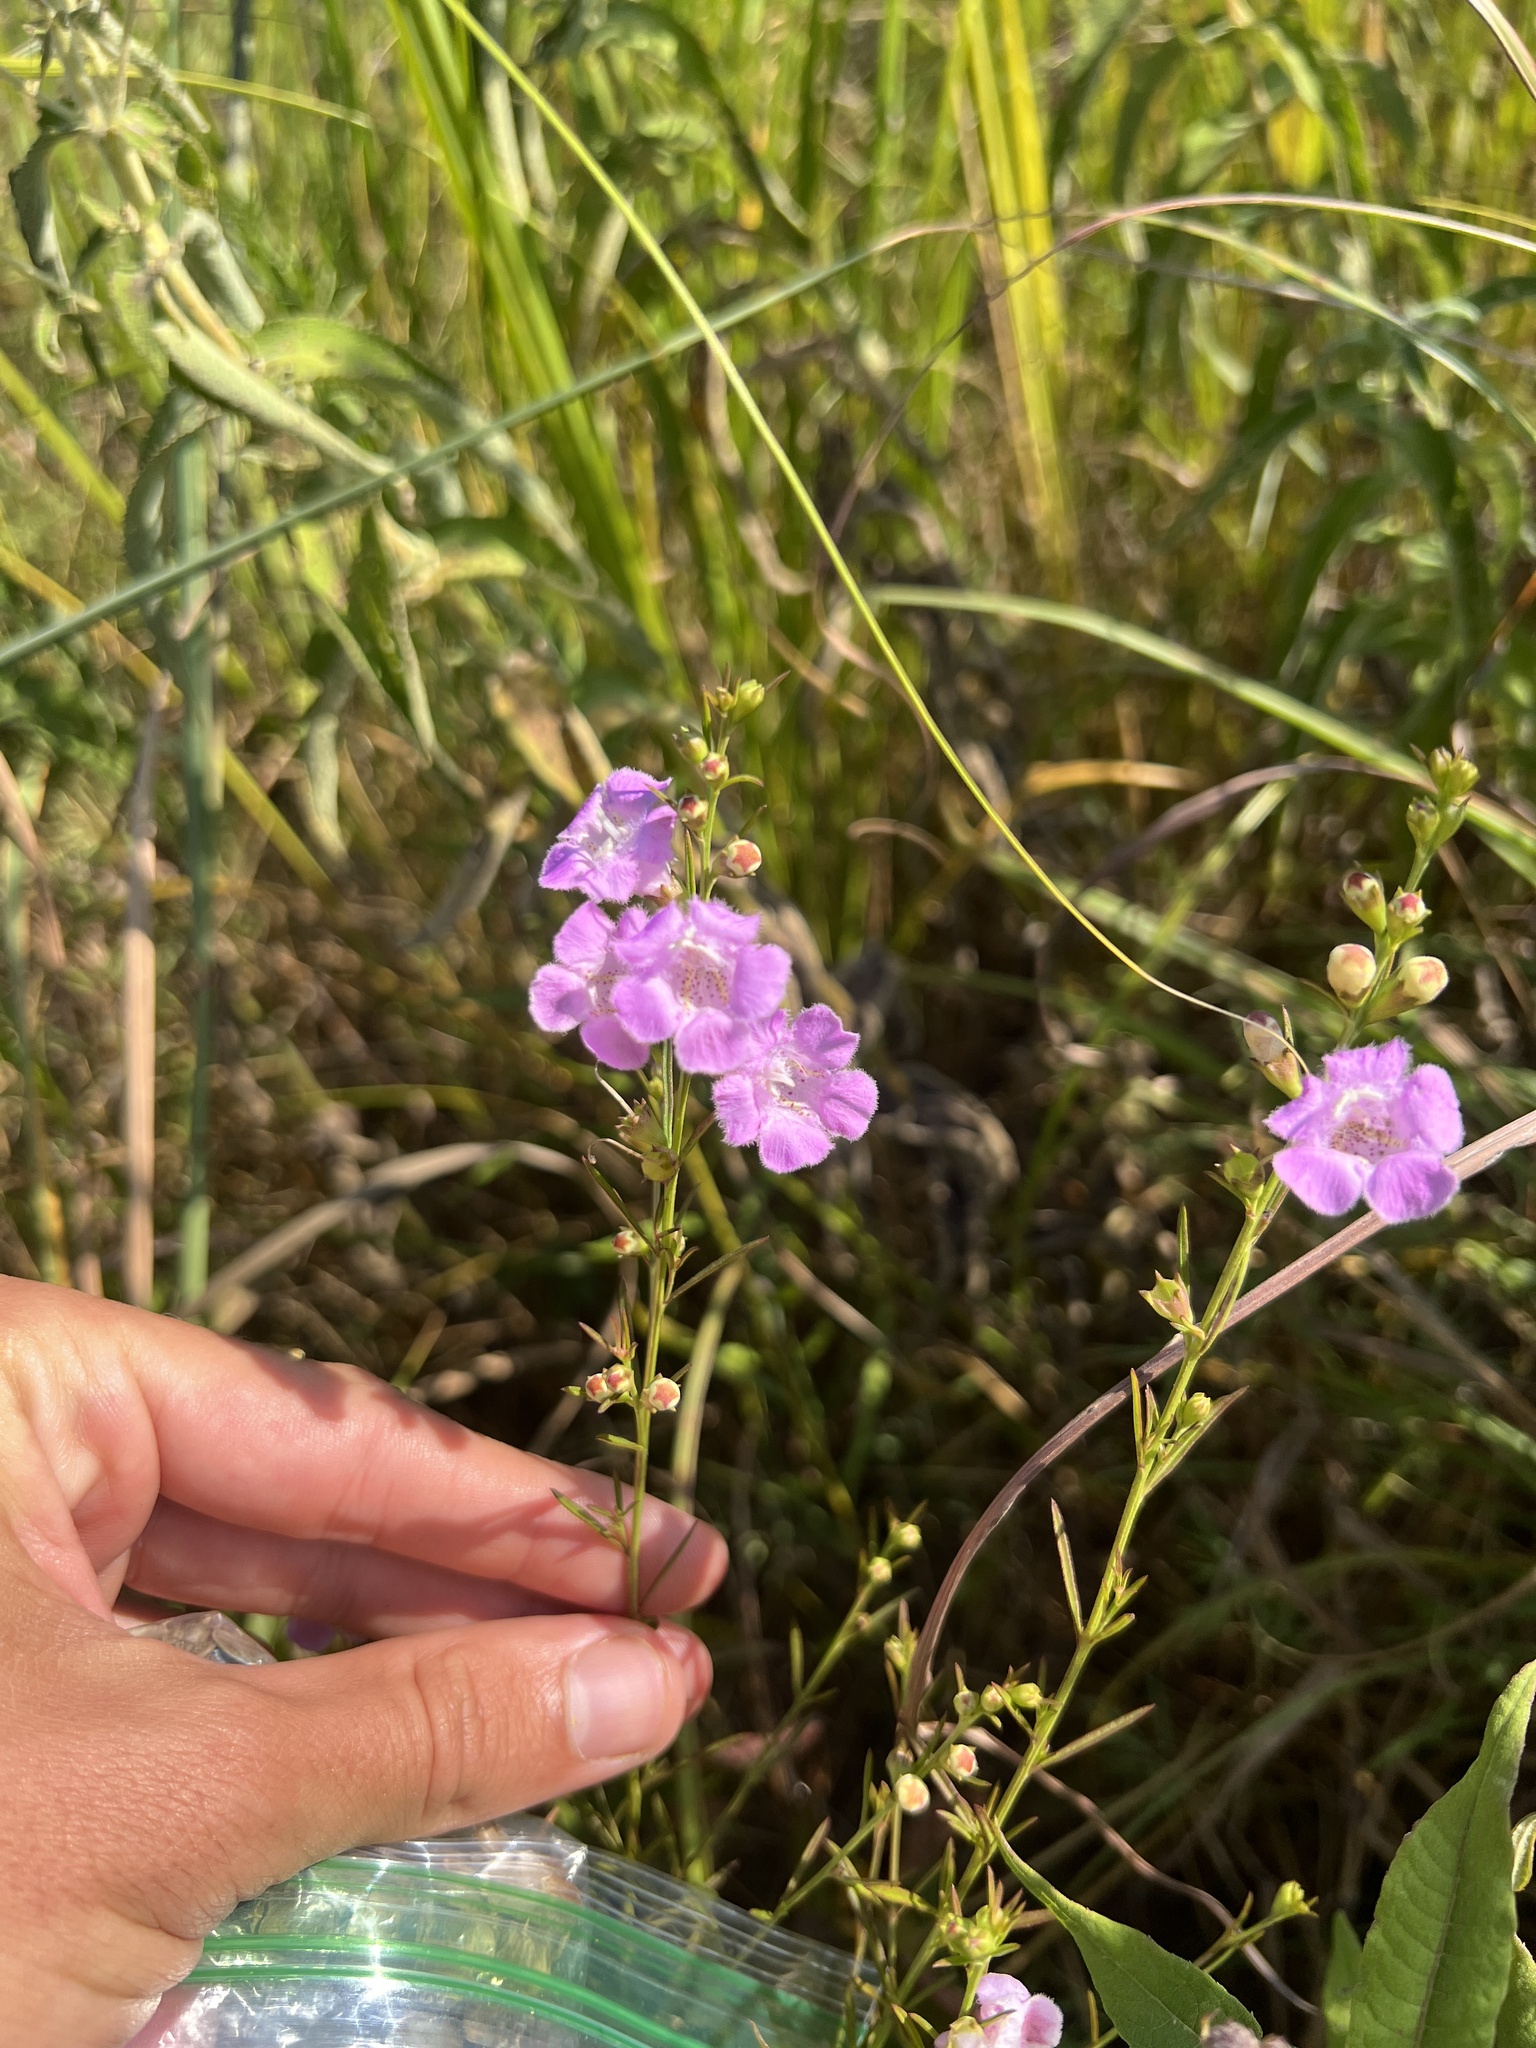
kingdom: Plantae
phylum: Tracheophyta
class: Magnoliopsida
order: Lamiales
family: Orobanchaceae
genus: Agalinis
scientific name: Agalinis fasciculata
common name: Beach false foxglove
